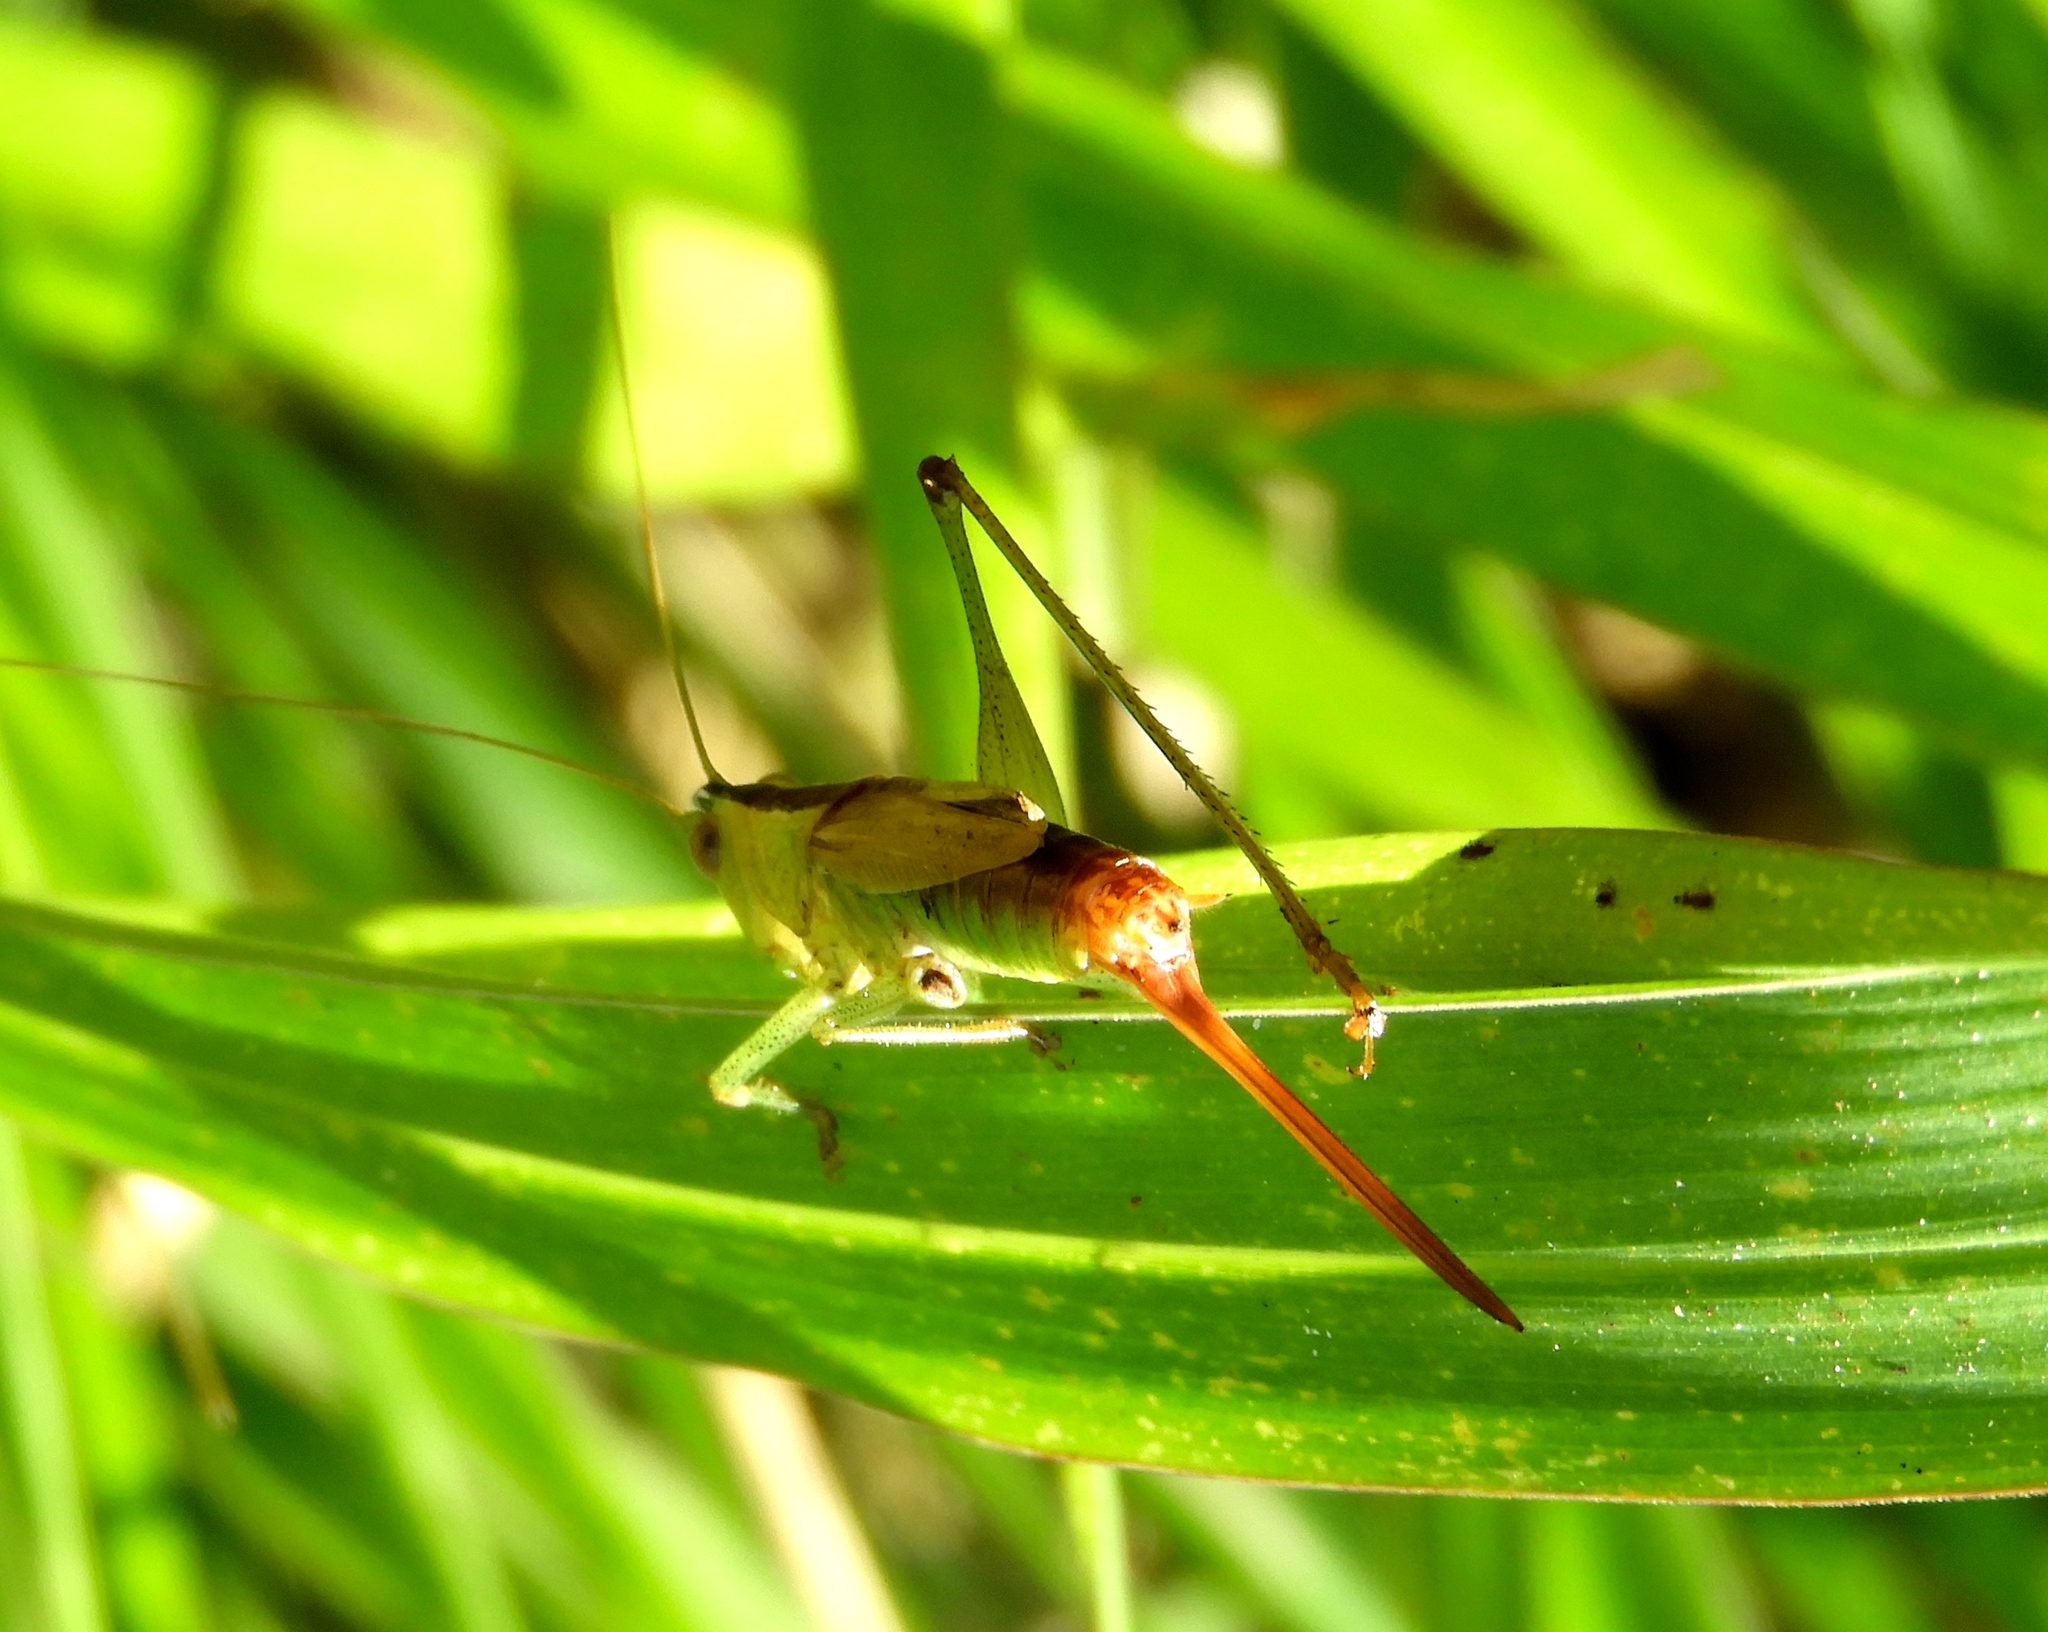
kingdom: Animalia
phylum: Arthropoda
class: Insecta
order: Orthoptera
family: Tettigoniidae
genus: Conocephalus
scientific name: Conocephalus
